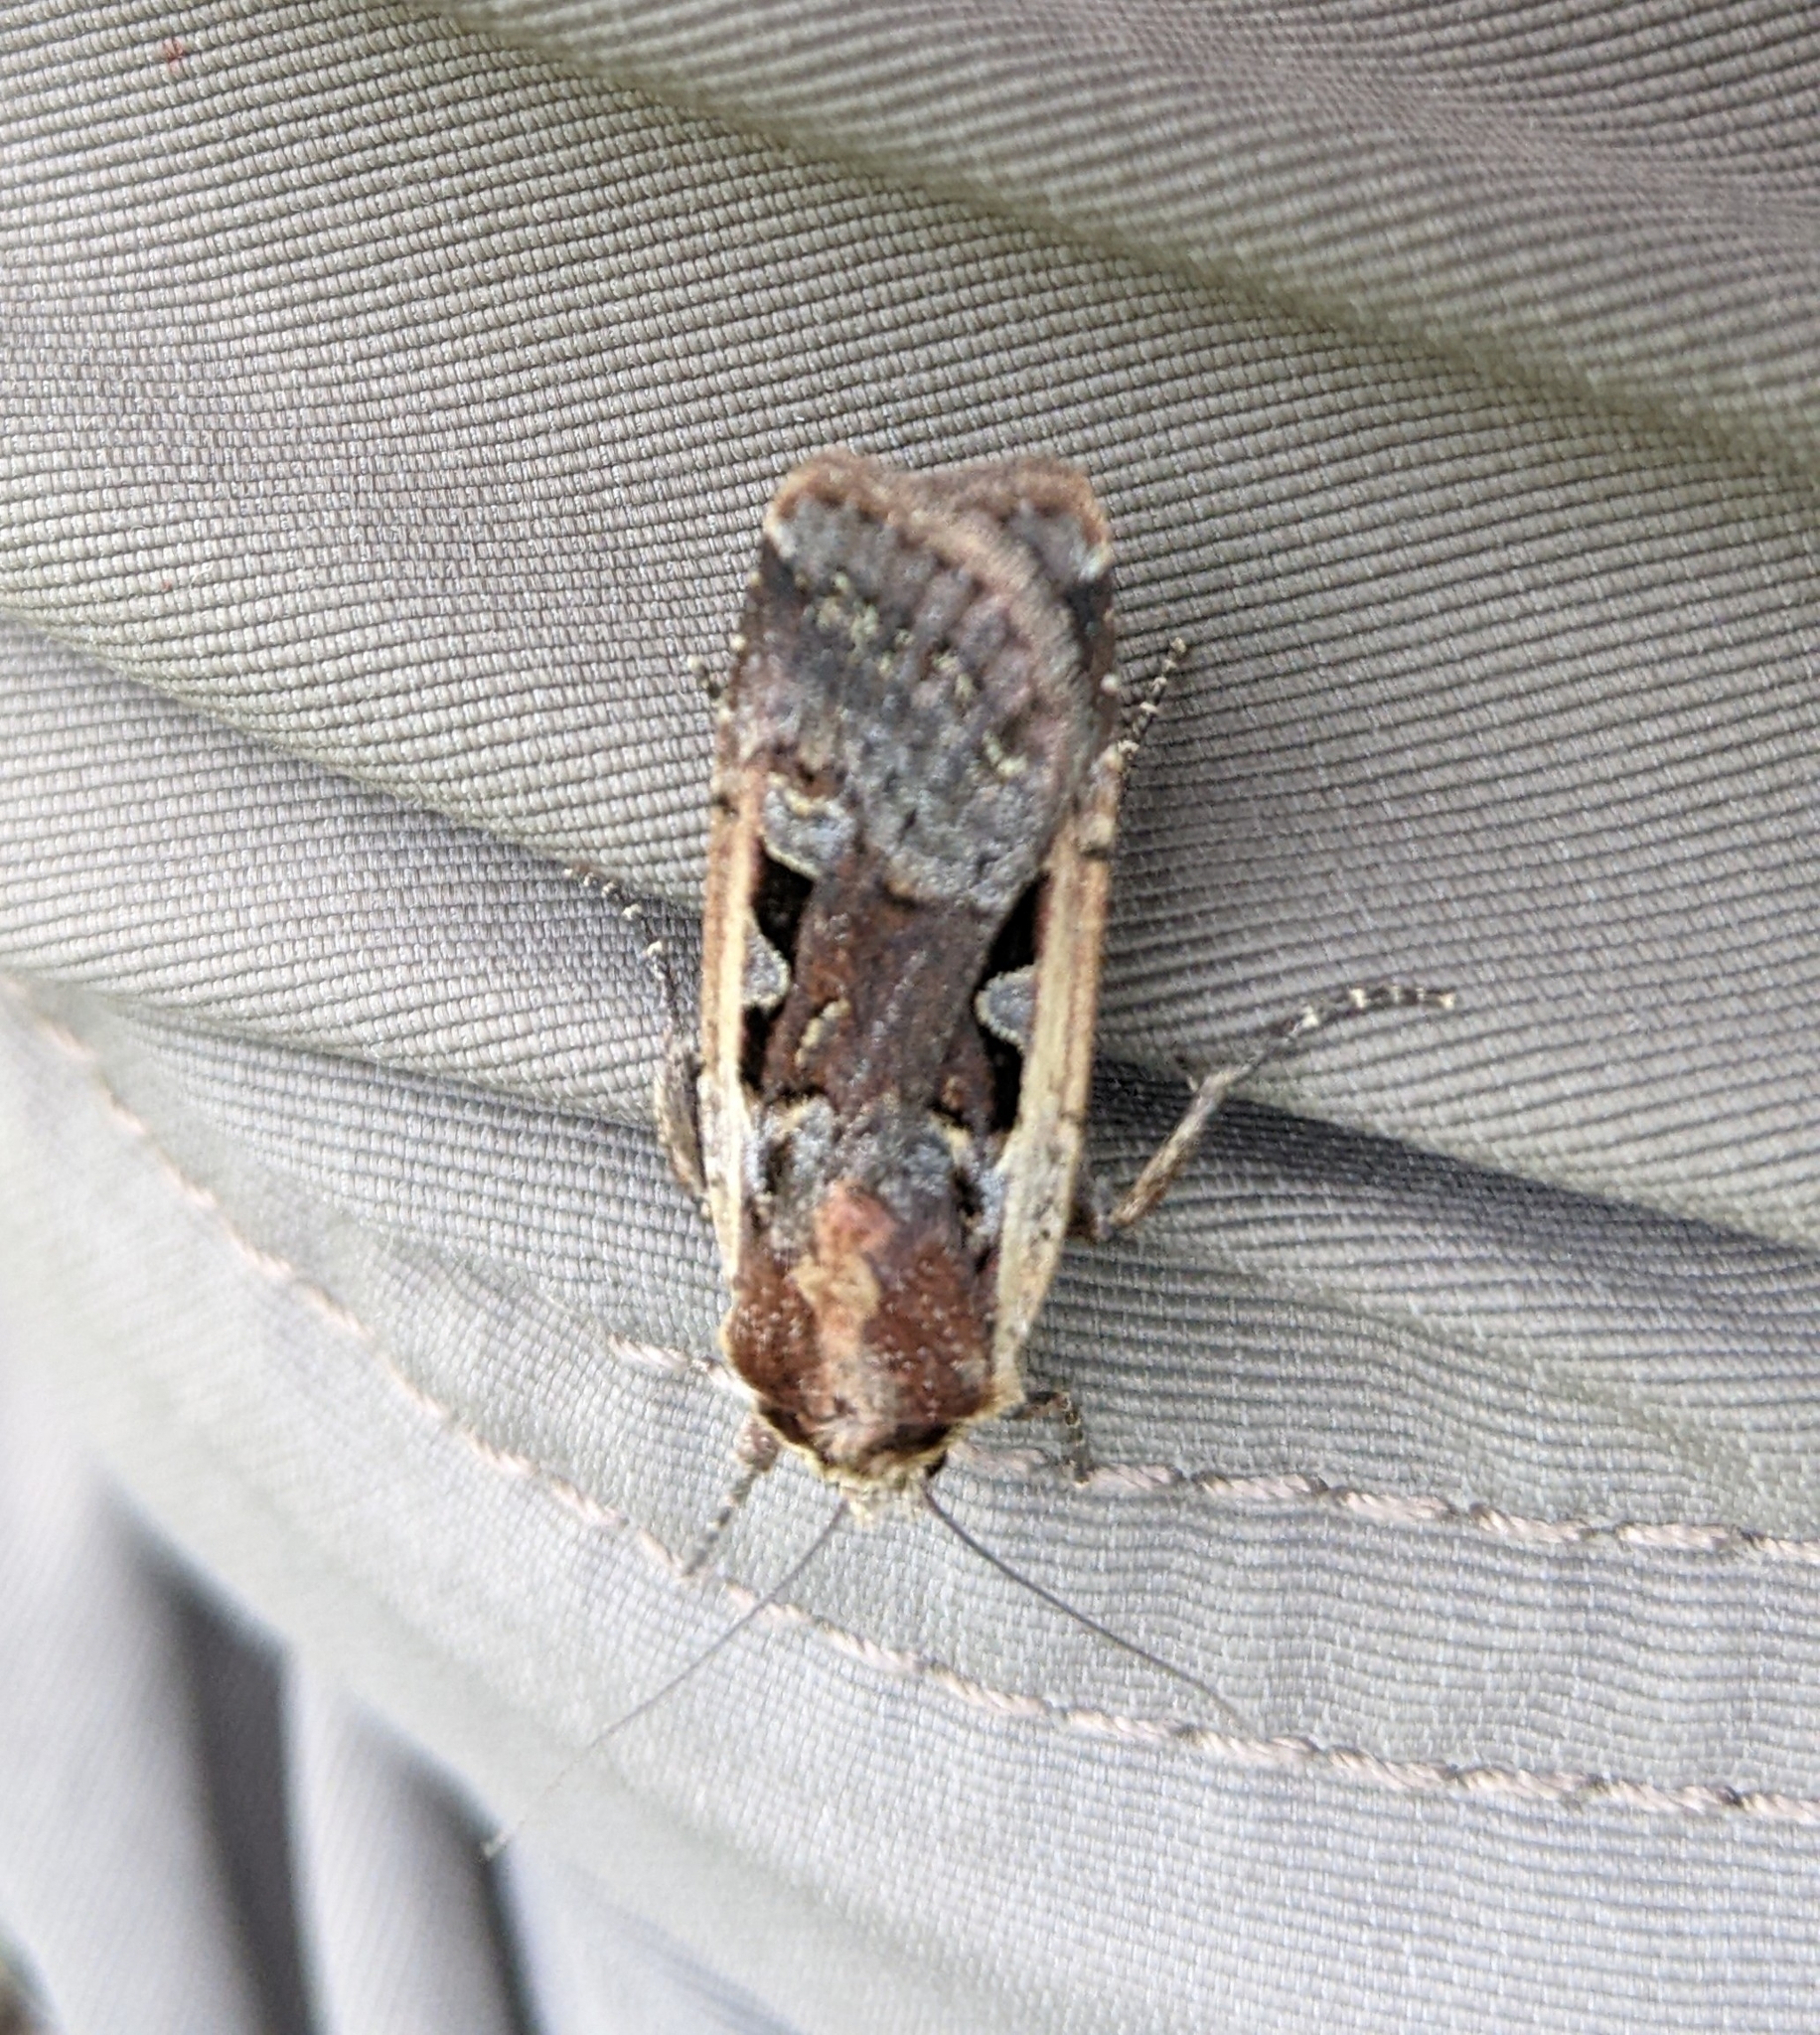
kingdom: Animalia
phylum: Arthropoda
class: Insecta
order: Lepidoptera
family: Noctuidae
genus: Parabagrotis
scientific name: Parabagrotis exsertistigma
